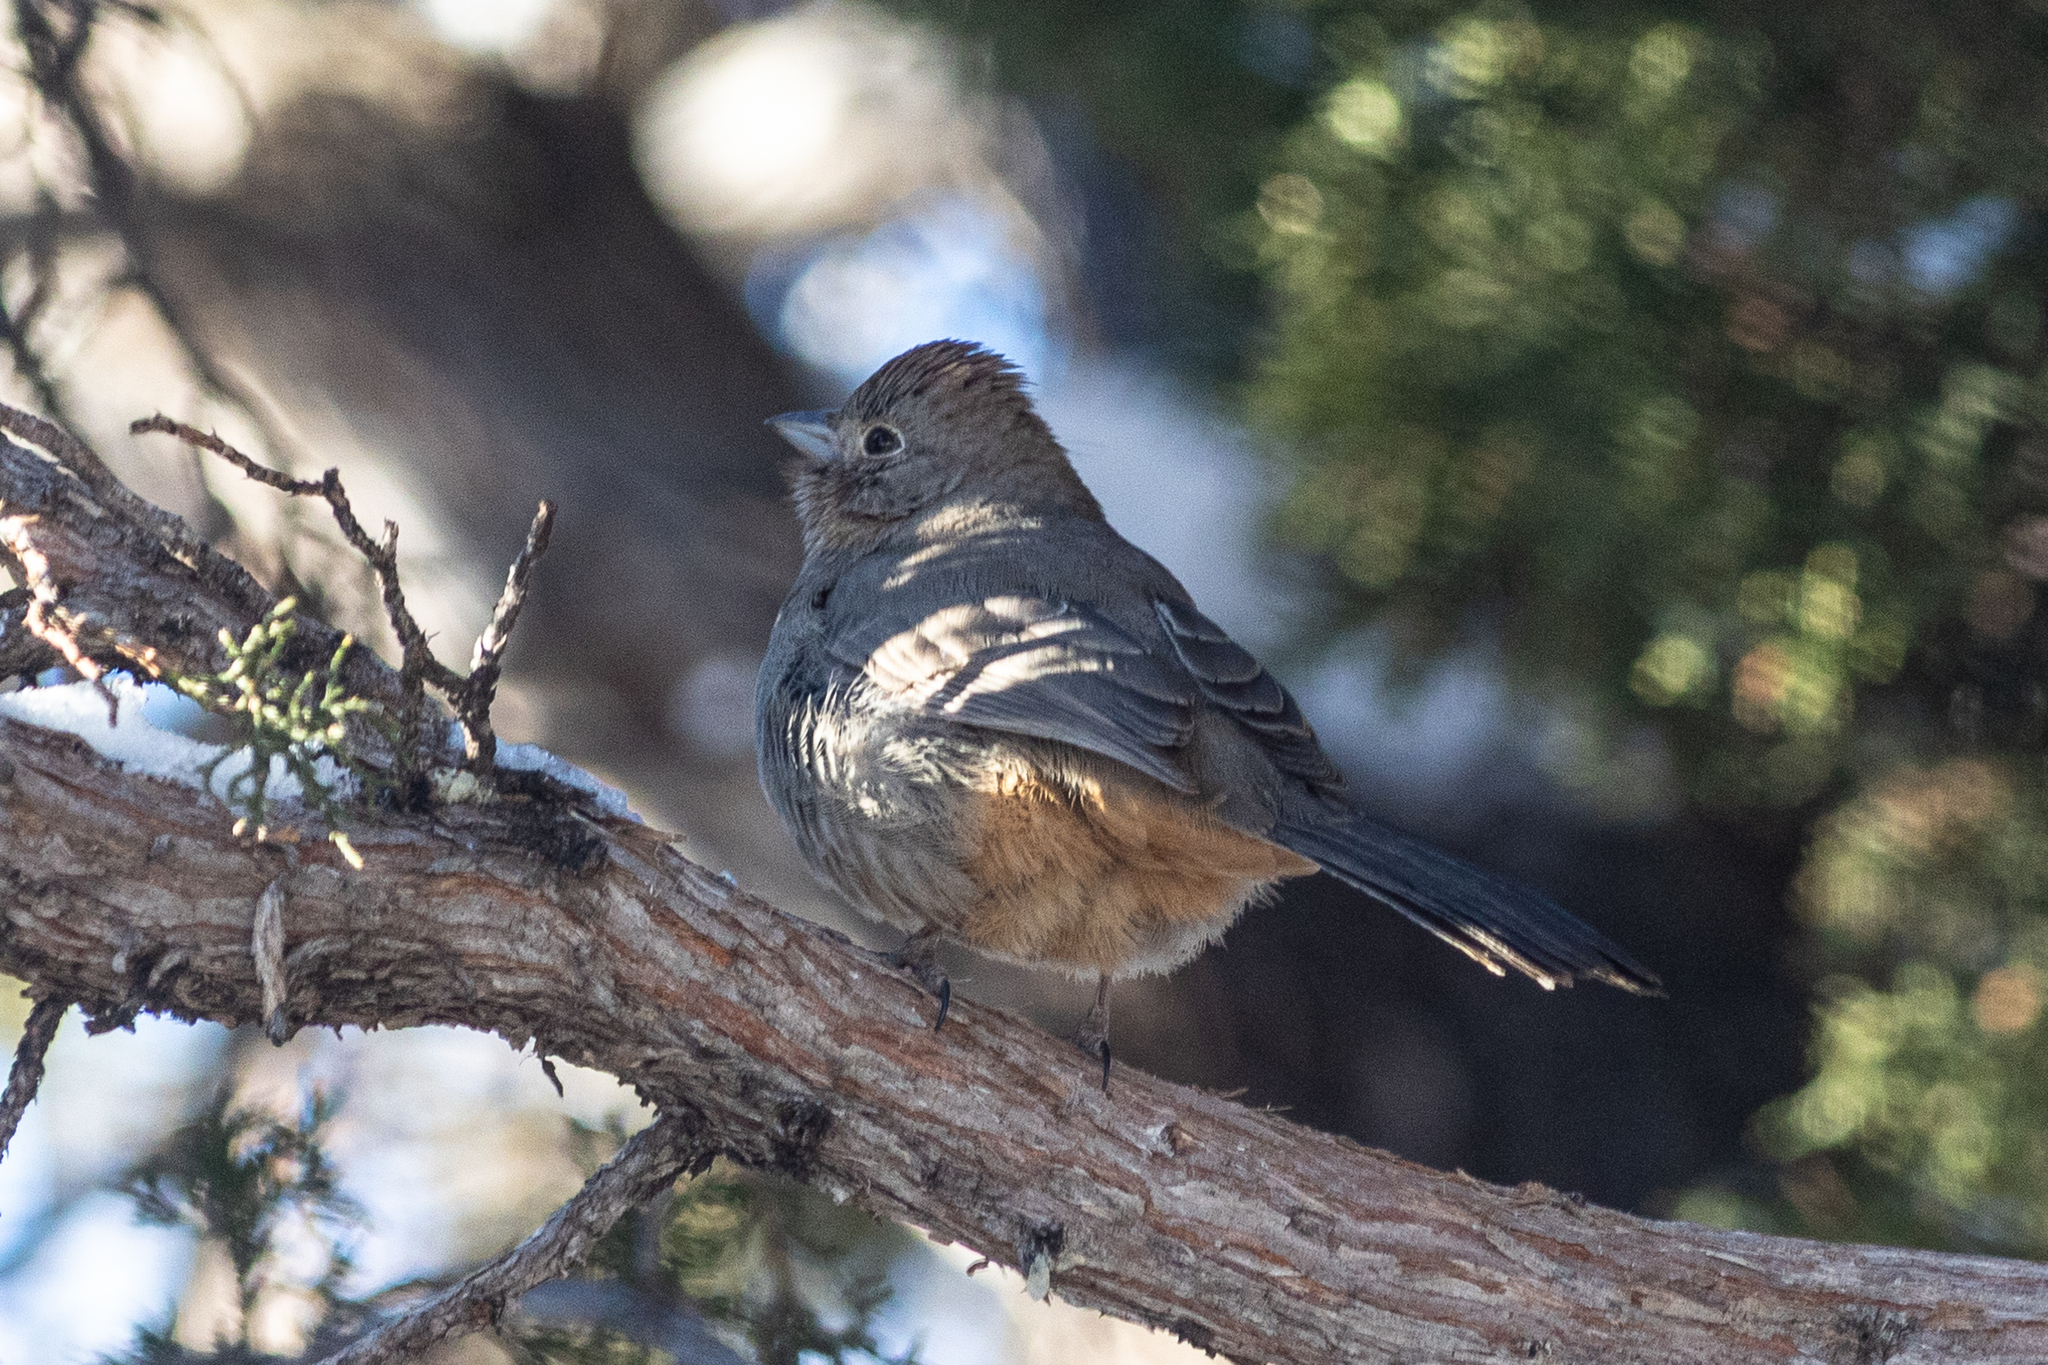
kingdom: Animalia
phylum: Chordata
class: Aves
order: Passeriformes
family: Passerellidae
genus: Melozone
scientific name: Melozone fusca
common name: Canyon towhee
